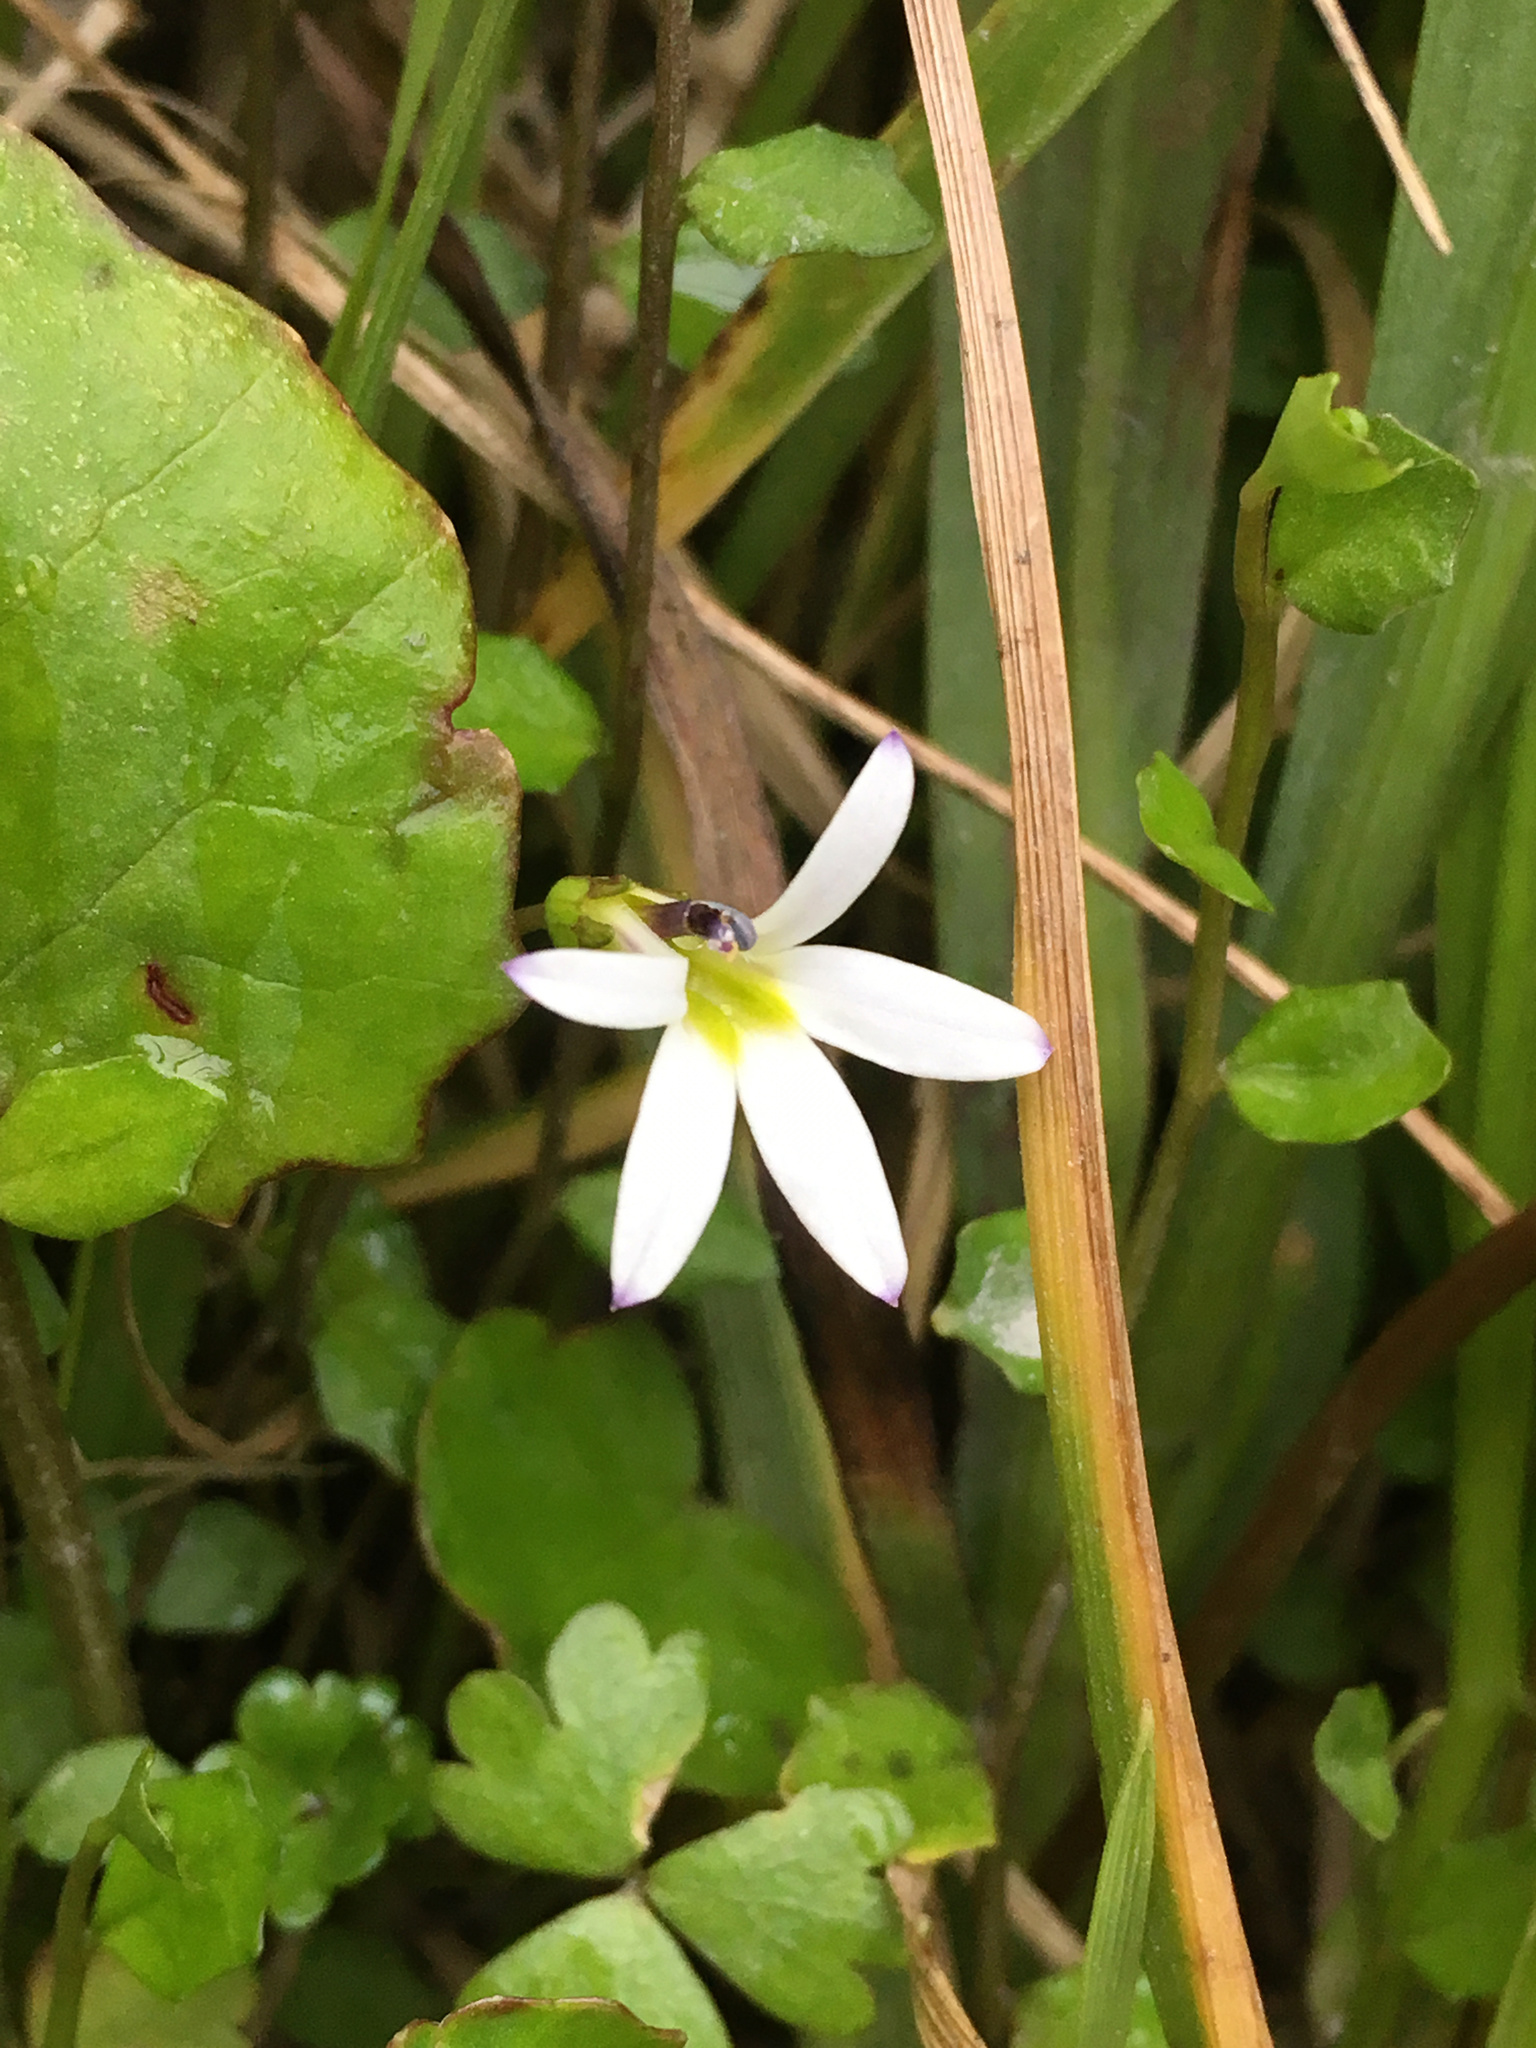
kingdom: Plantae
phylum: Tracheophyta
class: Magnoliopsida
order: Asterales
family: Campanulaceae
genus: Lobelia
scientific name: Lobelia angulata
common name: Lawn lobelia
